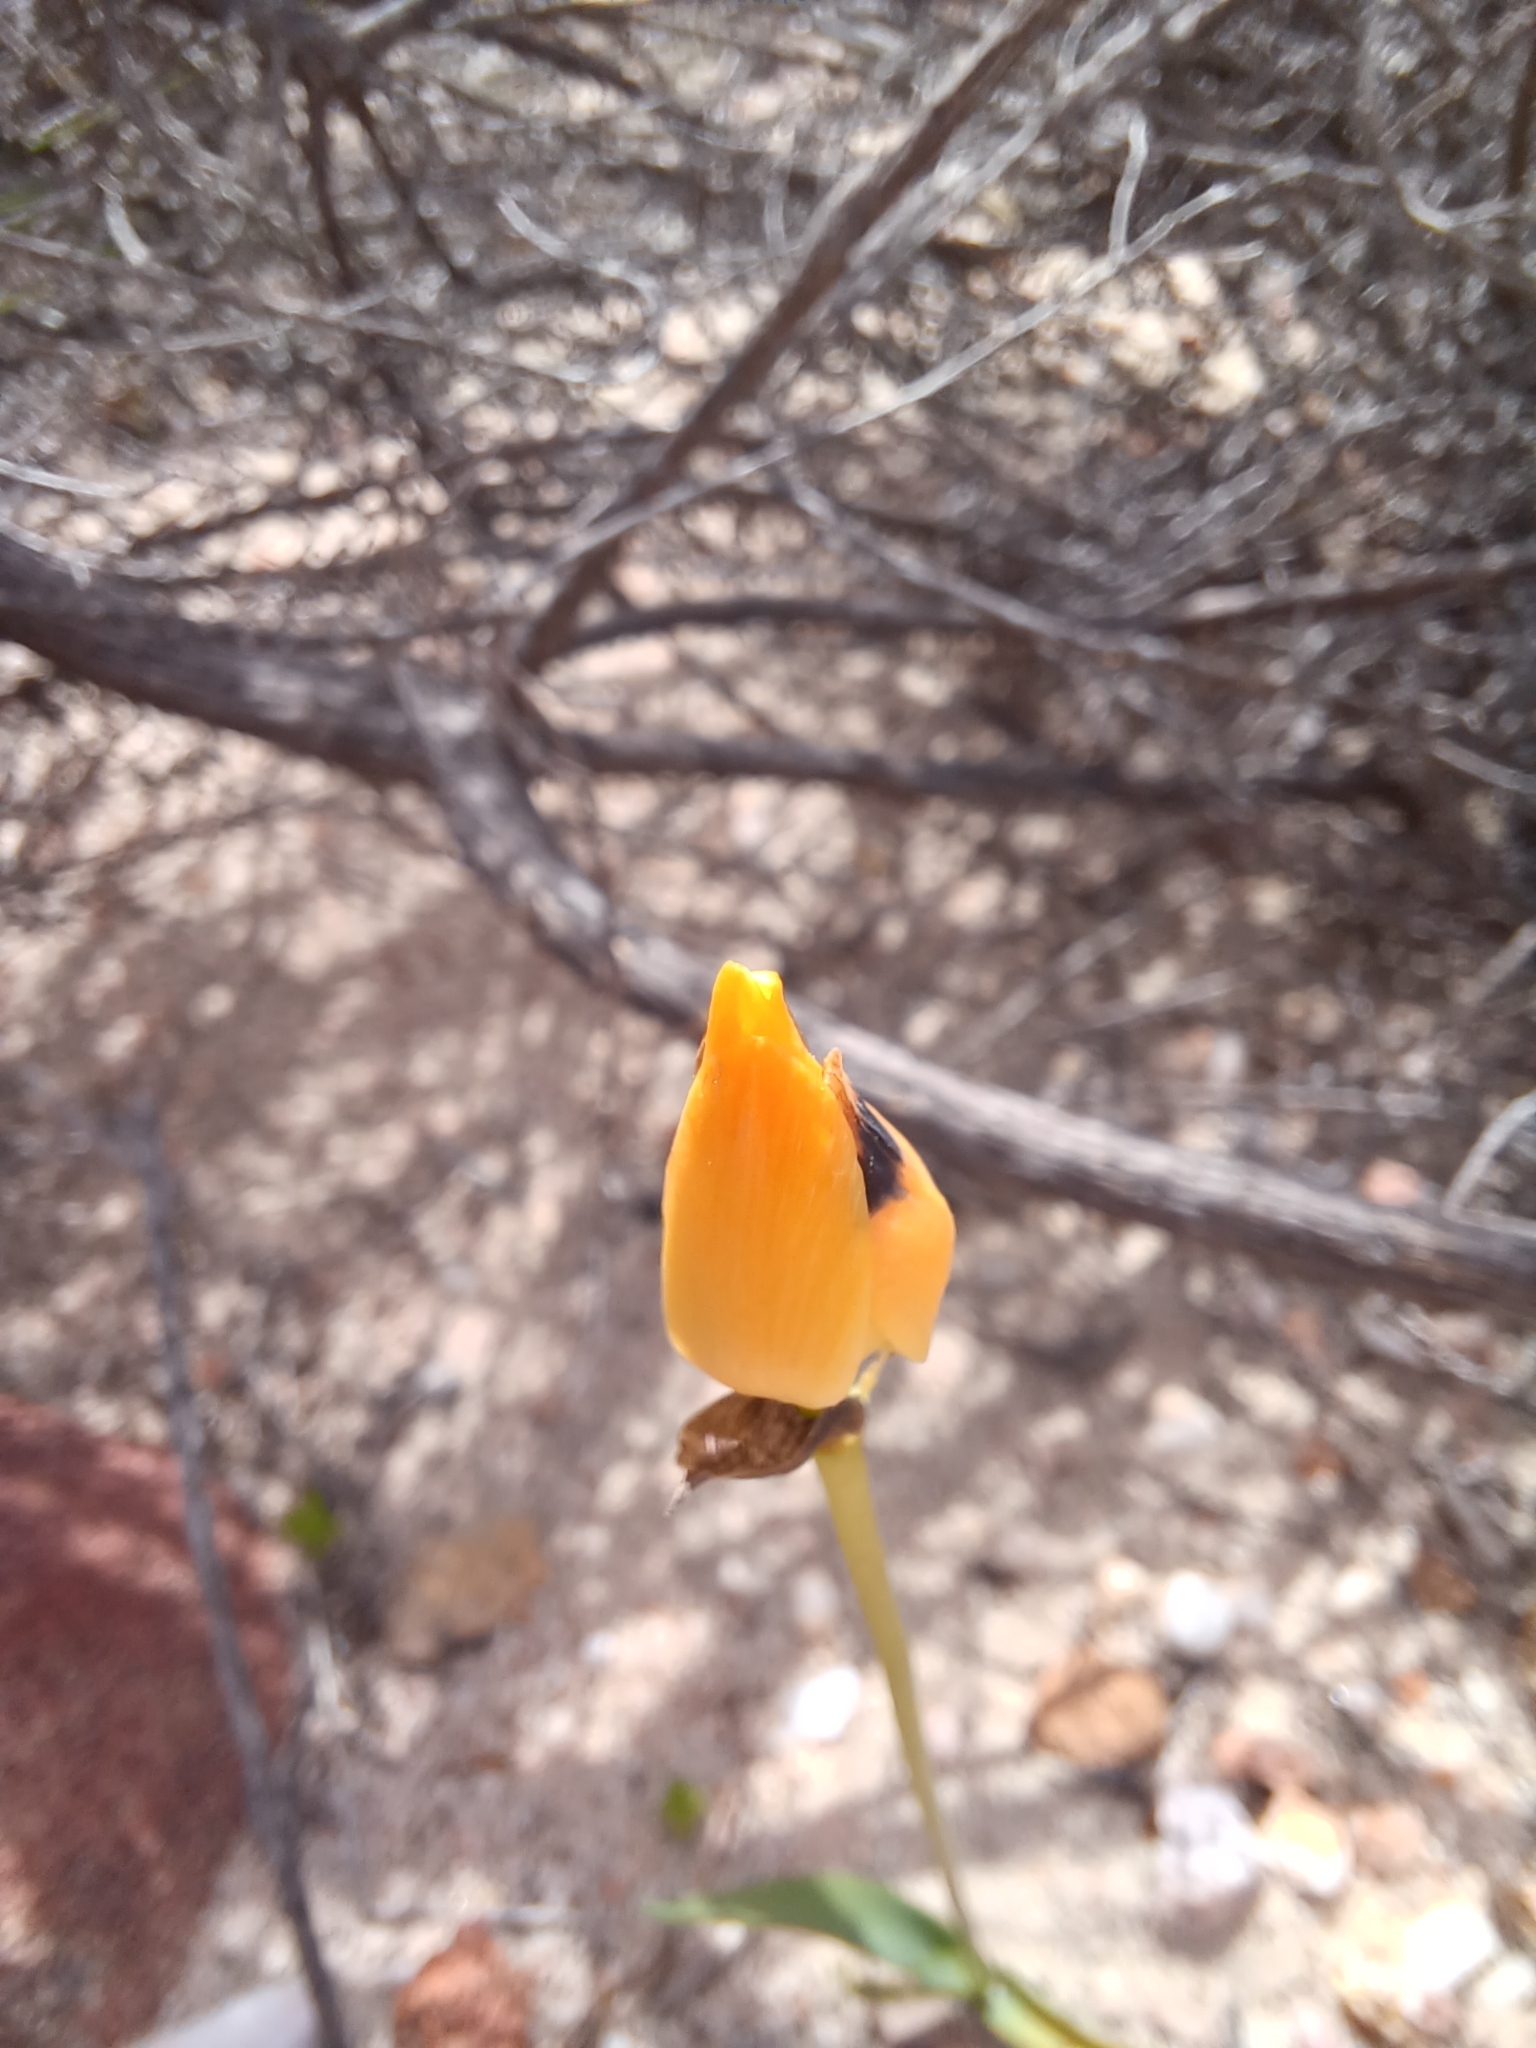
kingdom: Plantae
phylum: Tracheophyta
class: Liliopsida
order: Asparagales
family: Asparagaceae
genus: Ornithogalum
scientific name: Ornithogalum maculatum
